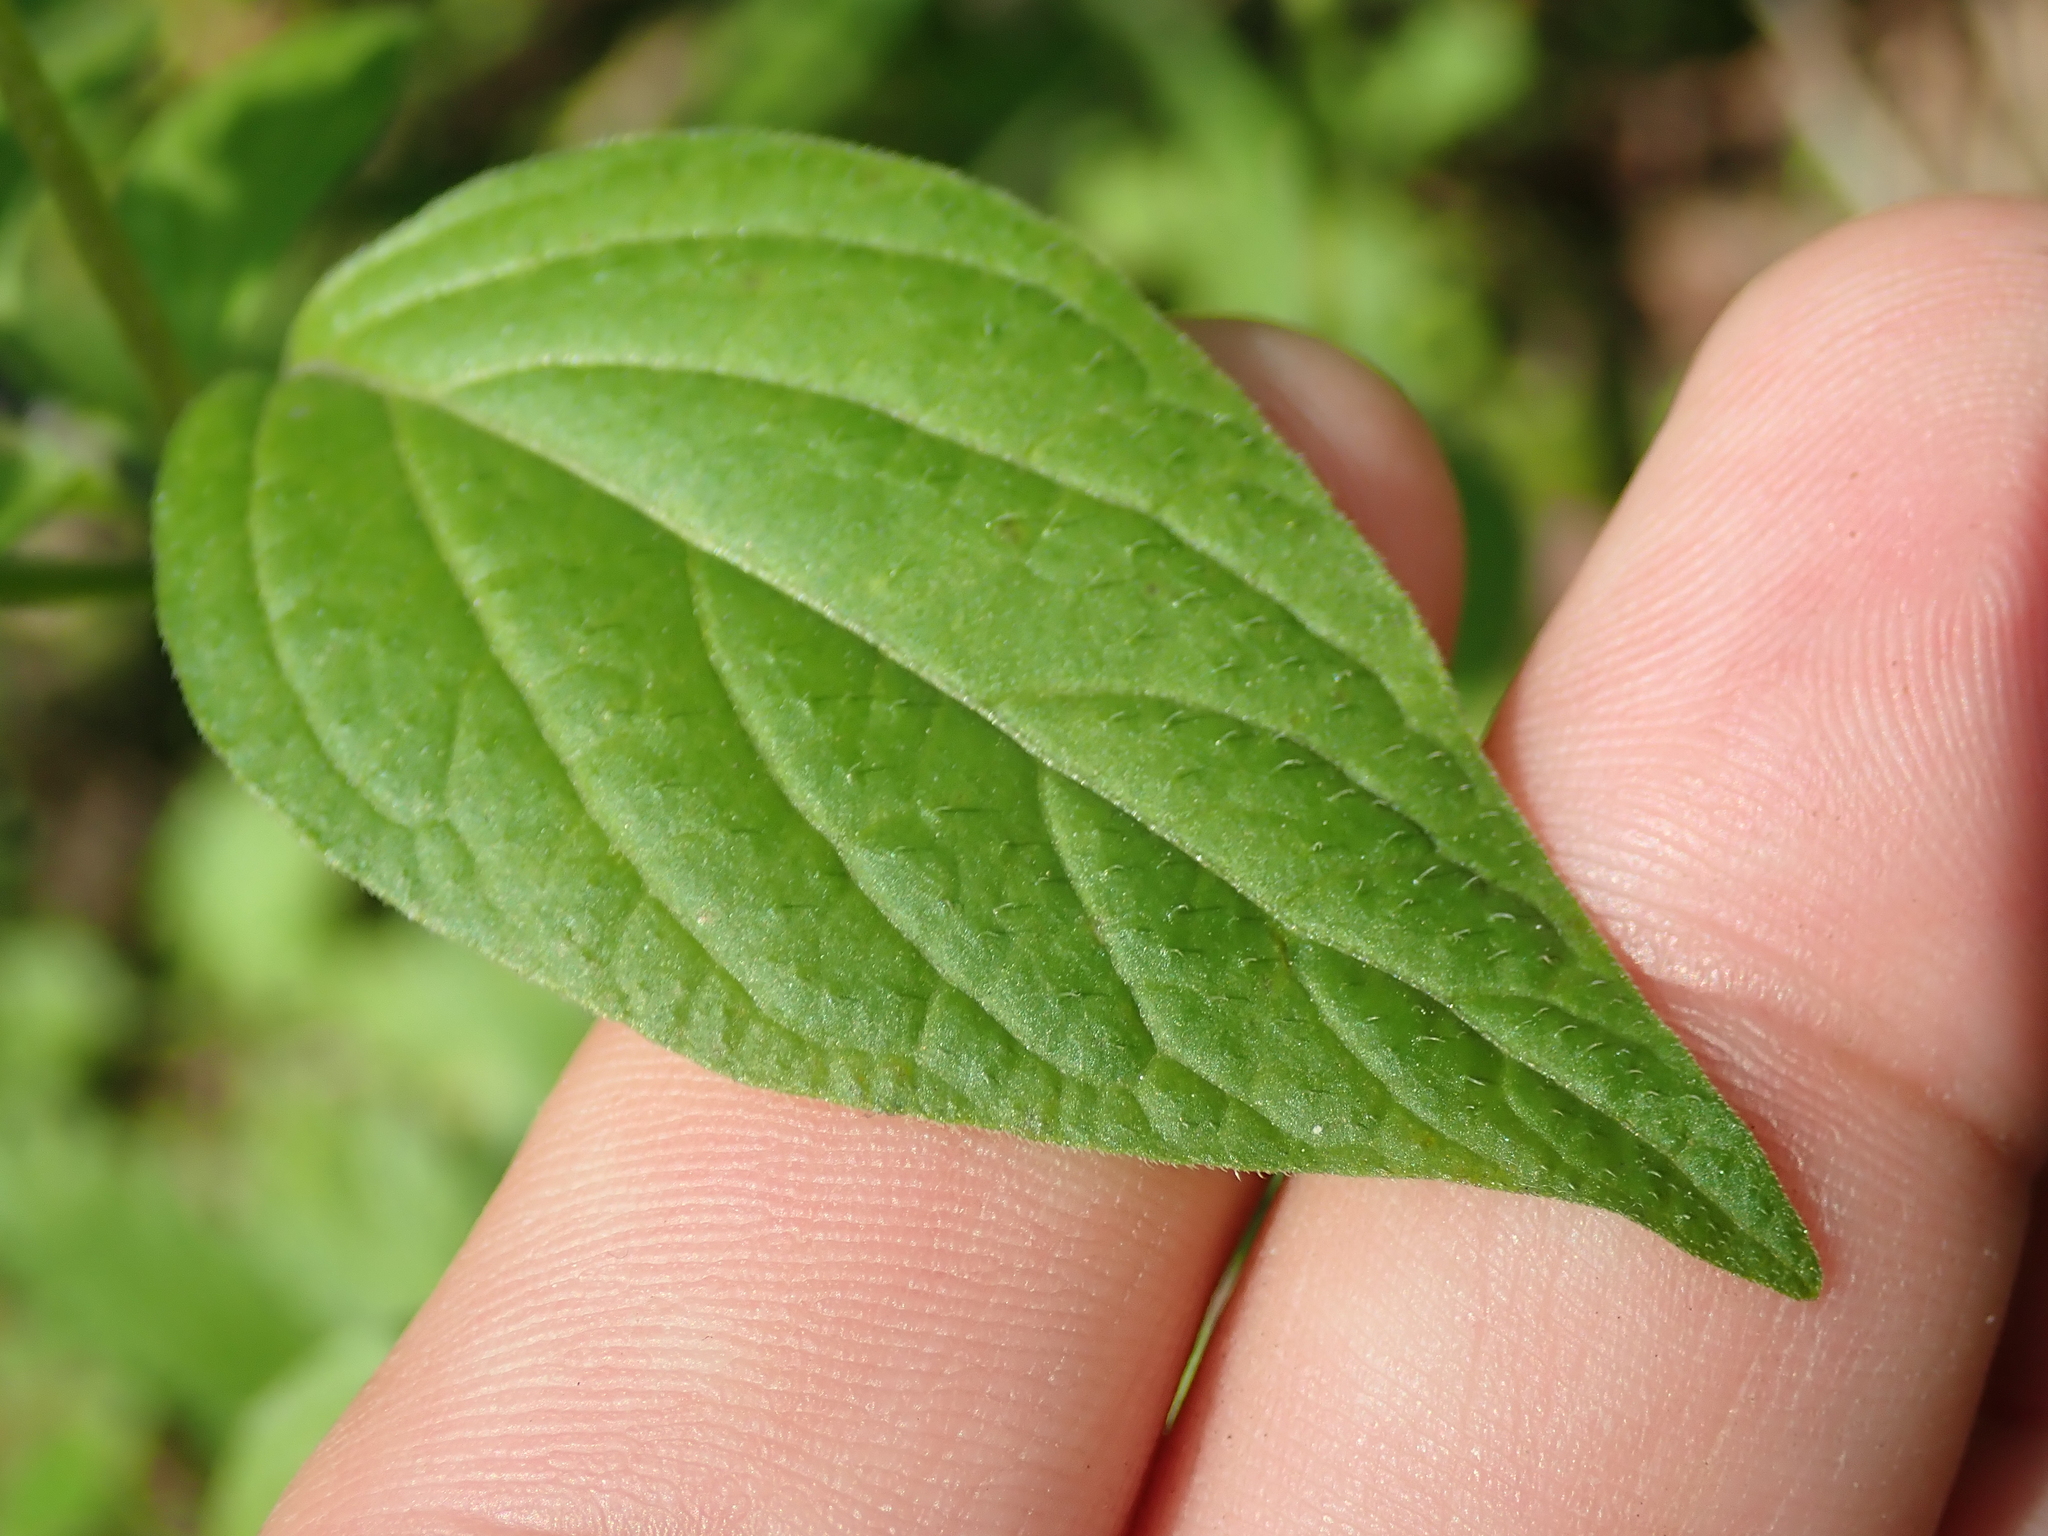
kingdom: Plantae
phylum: Tracheophyta
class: Magnoliopsida
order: Solanales
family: Solanaceae
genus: Browallia
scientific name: Browallia americana
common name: Jamaican forget-me-not
